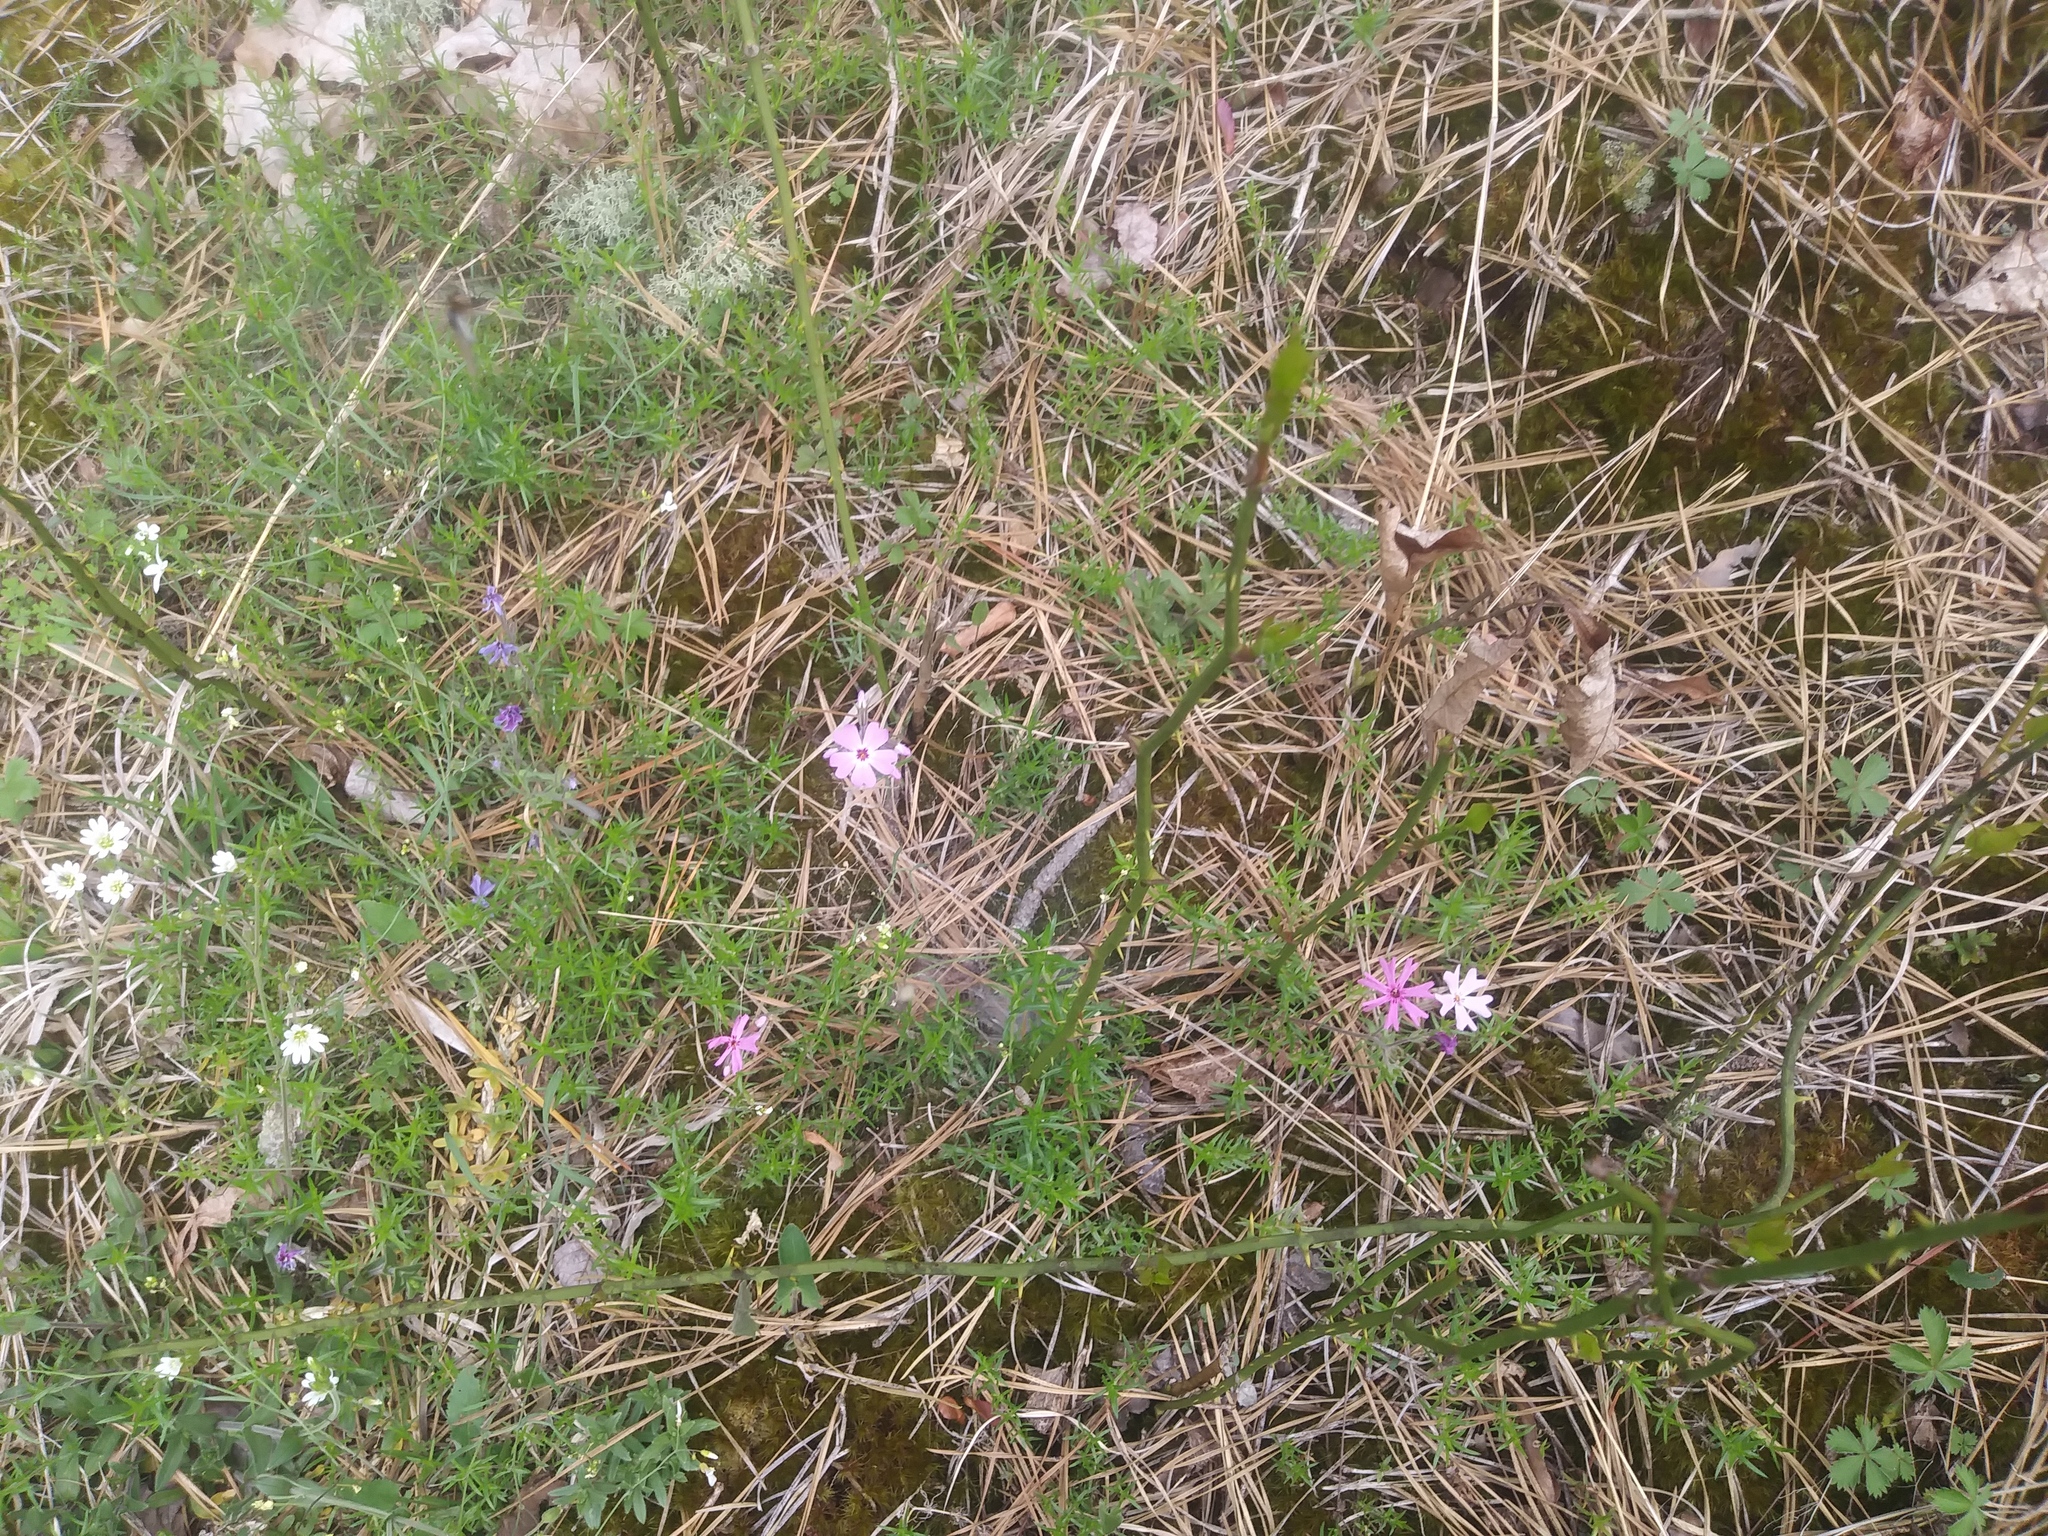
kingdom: Plantae
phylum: Tracheophyta
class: Magnoliopsida
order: Ericales
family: Polemoniaceae
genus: Phlox
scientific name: Phlox subulata
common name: Moss phlox
